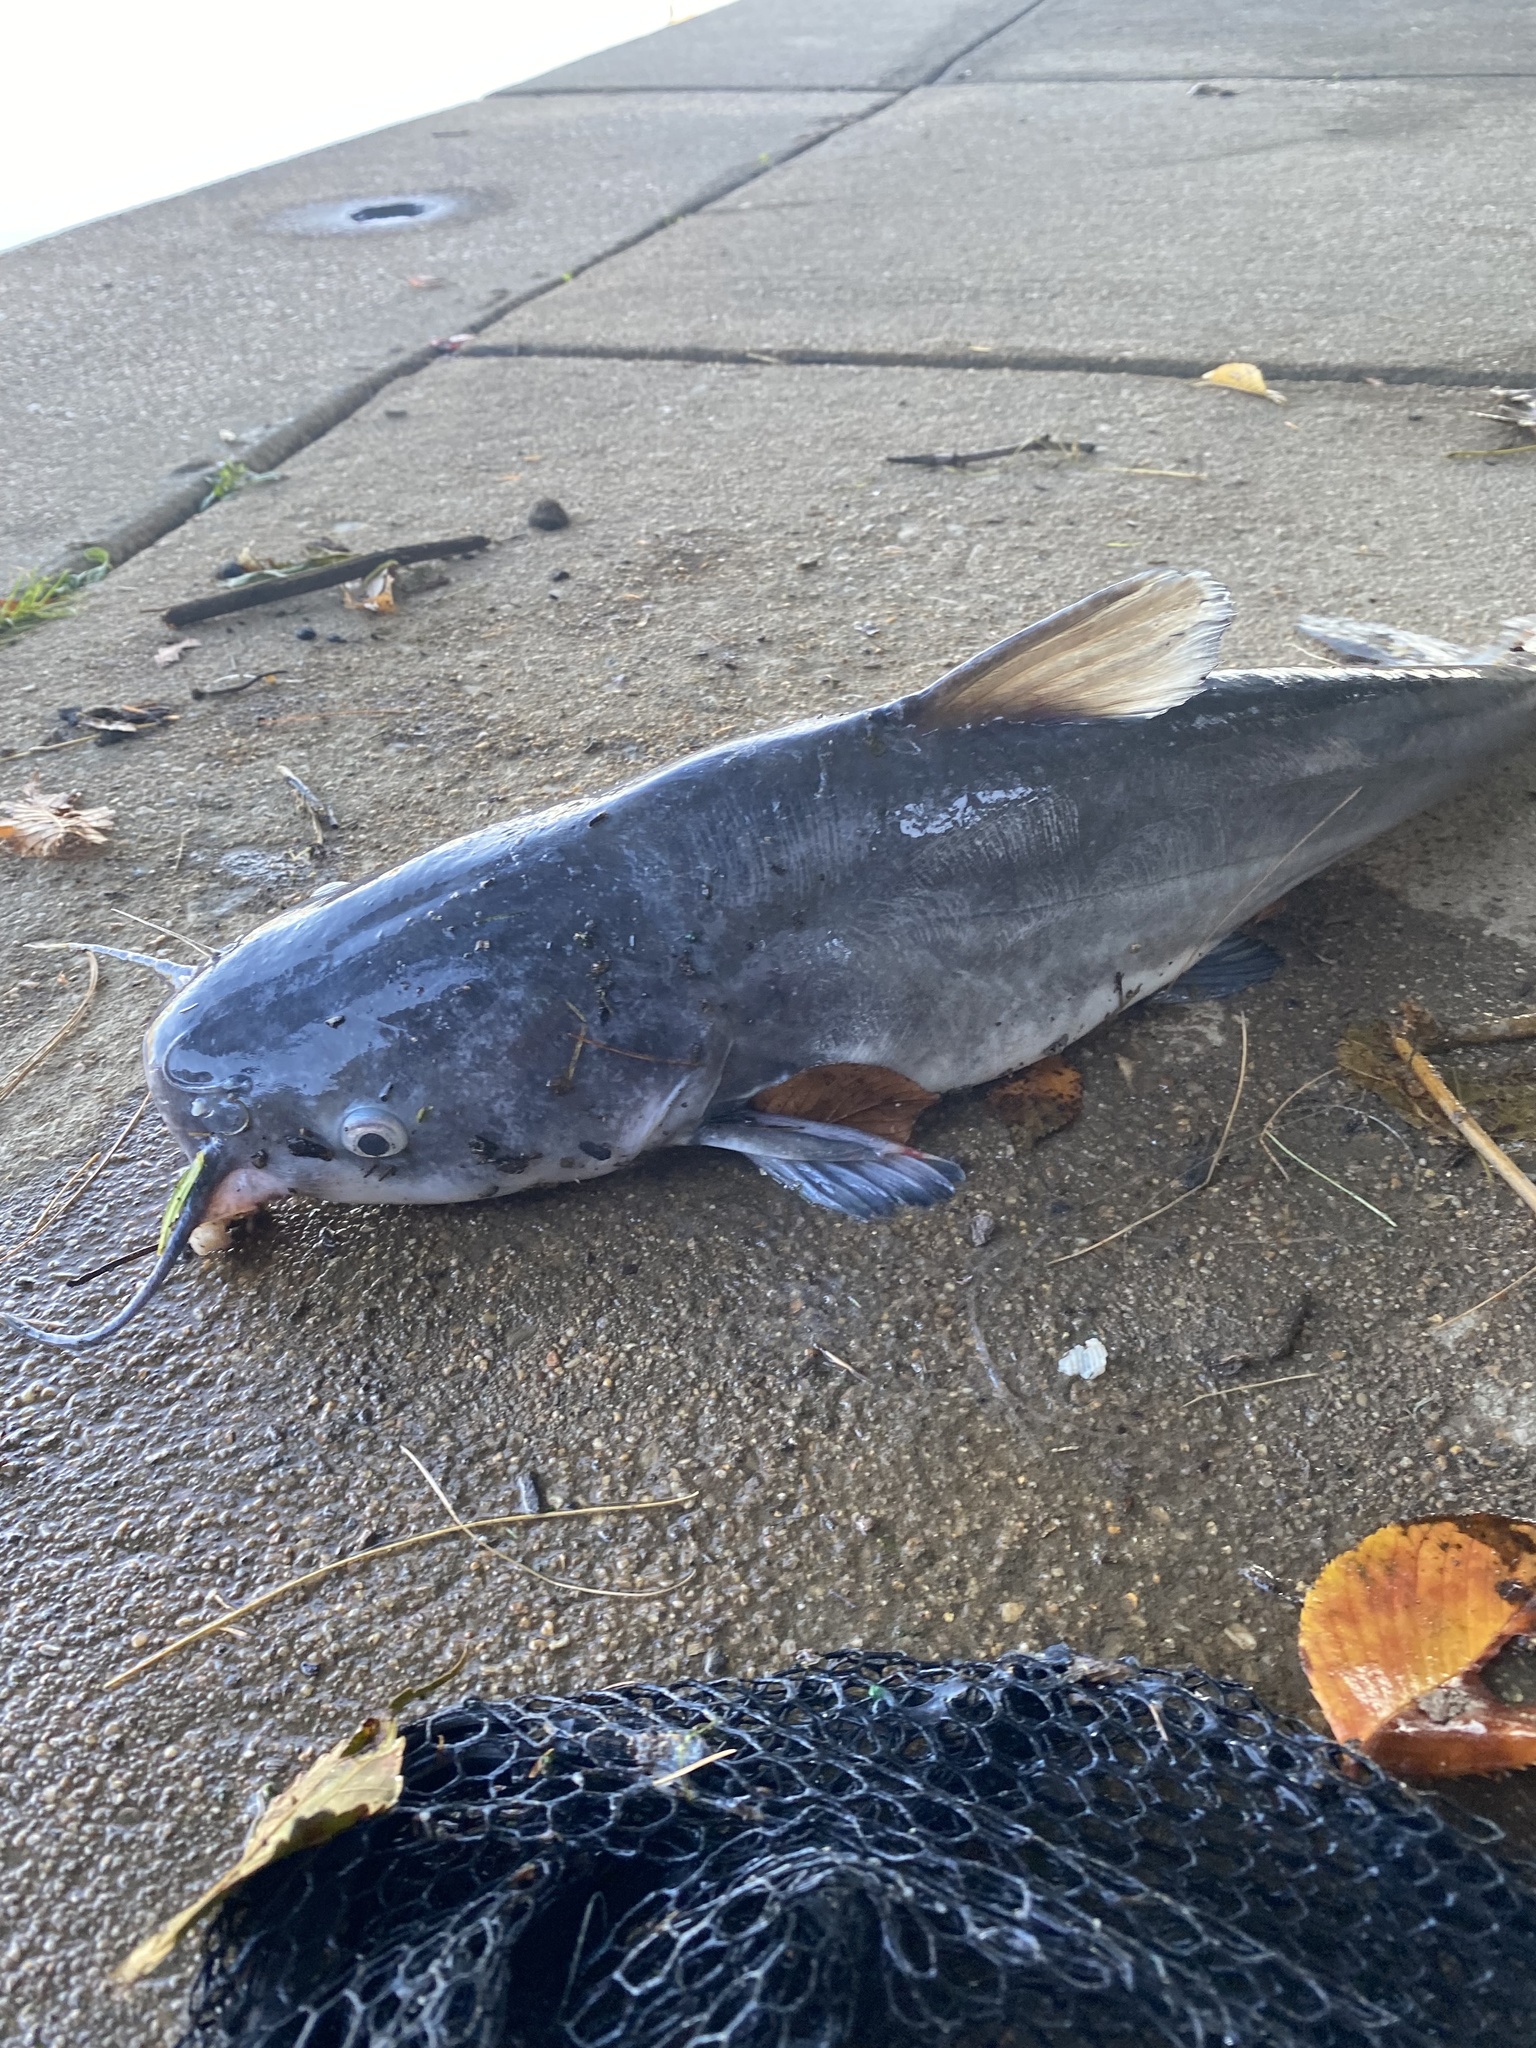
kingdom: Animalia
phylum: Chordata
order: Siluriformes
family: Ictaluridae
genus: Ictalurus
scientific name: Ictalurus furcatus
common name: Blue catfish
